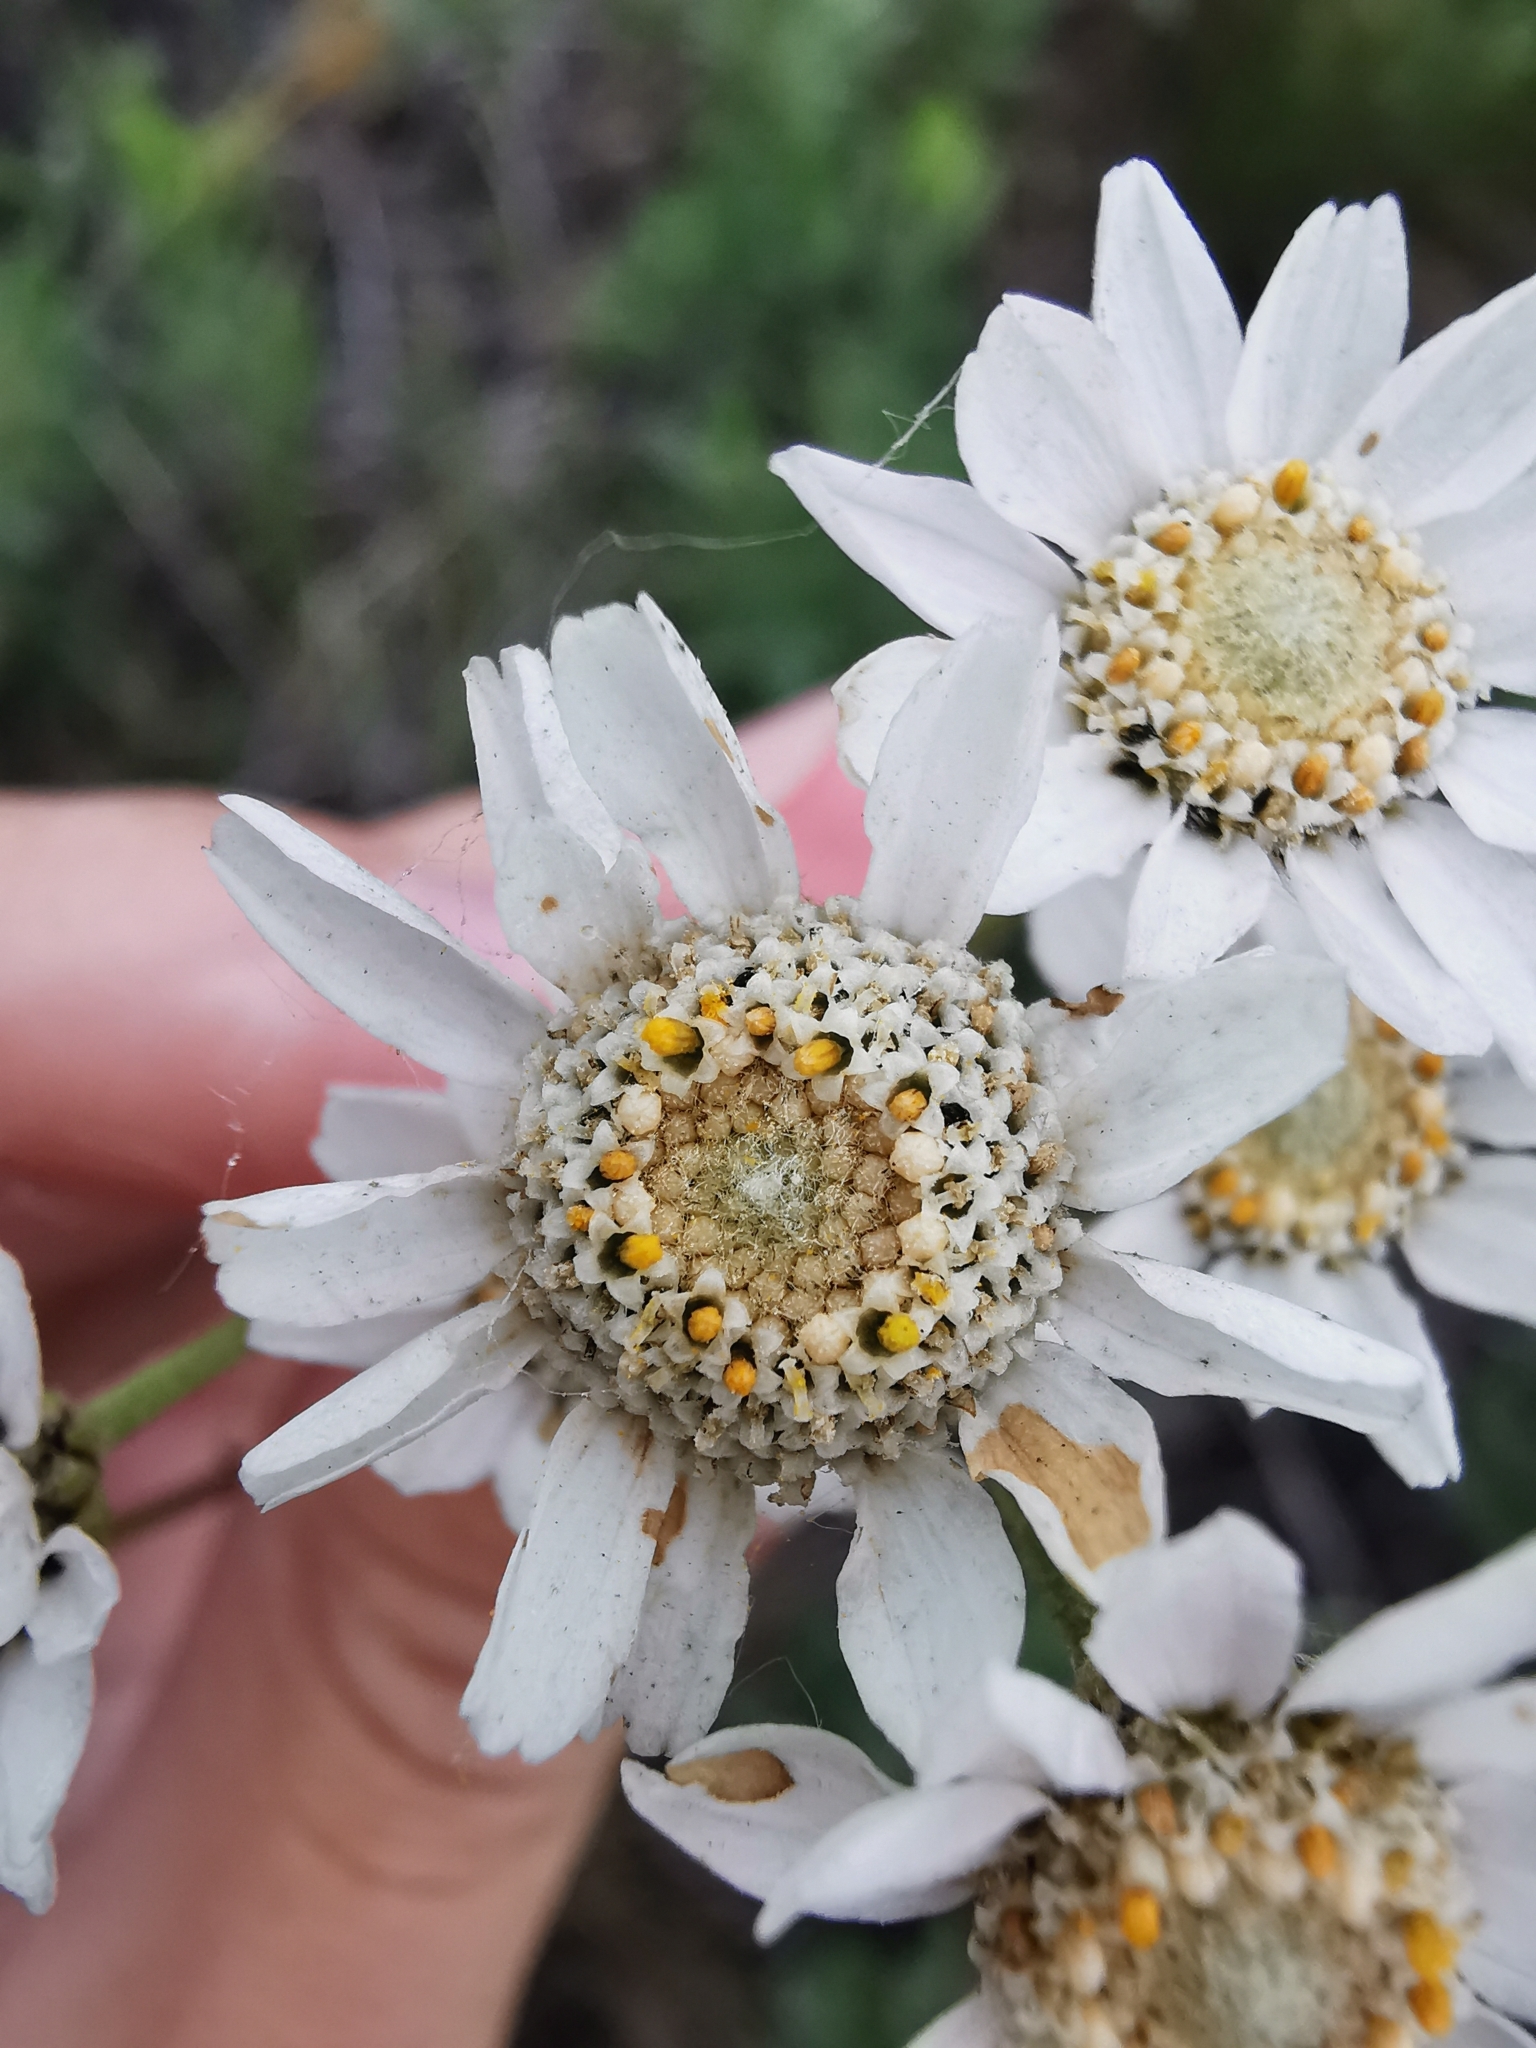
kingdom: Plantae
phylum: Tracheophyta
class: Magnoliopsida
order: Asterales
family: Asteraceae
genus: Achillea
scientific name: Achillea ptarmica
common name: Sneezeweed
